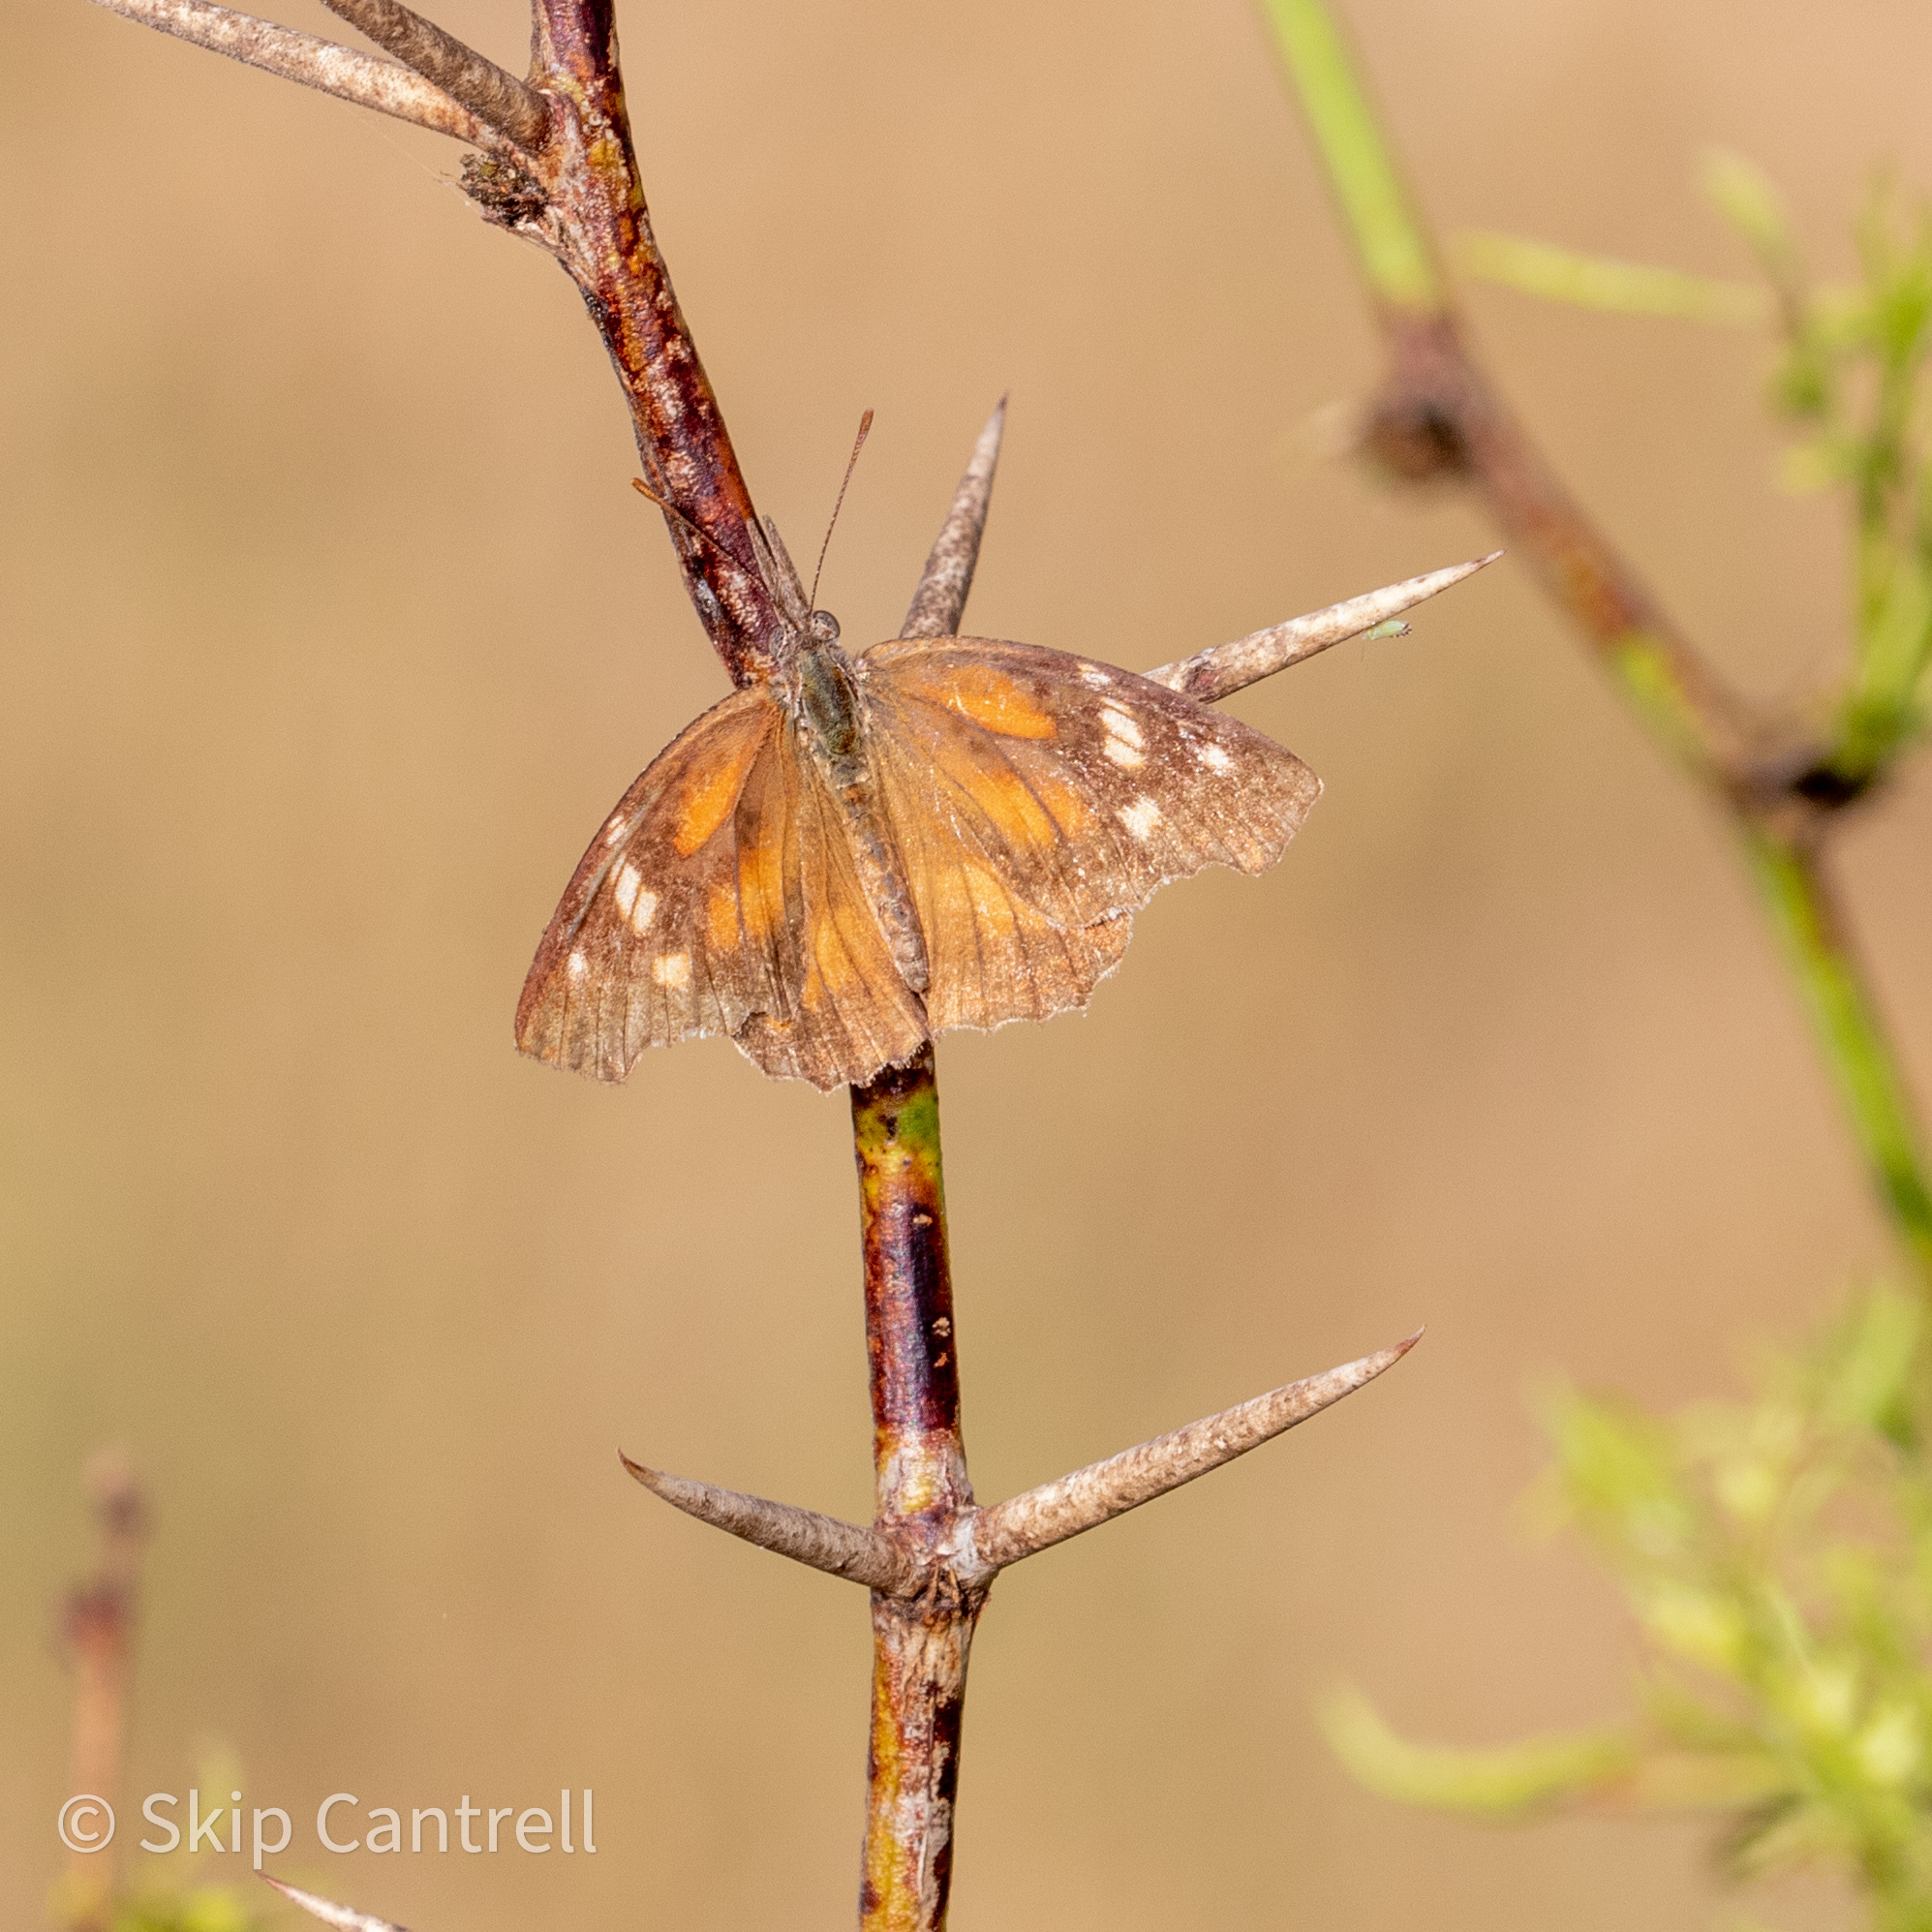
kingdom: Animalia
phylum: Arthropoda
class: Insecta
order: Lepidoptera
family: Nymphalidae
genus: Libytheana
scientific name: Libytheana carinenta
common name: American snout
